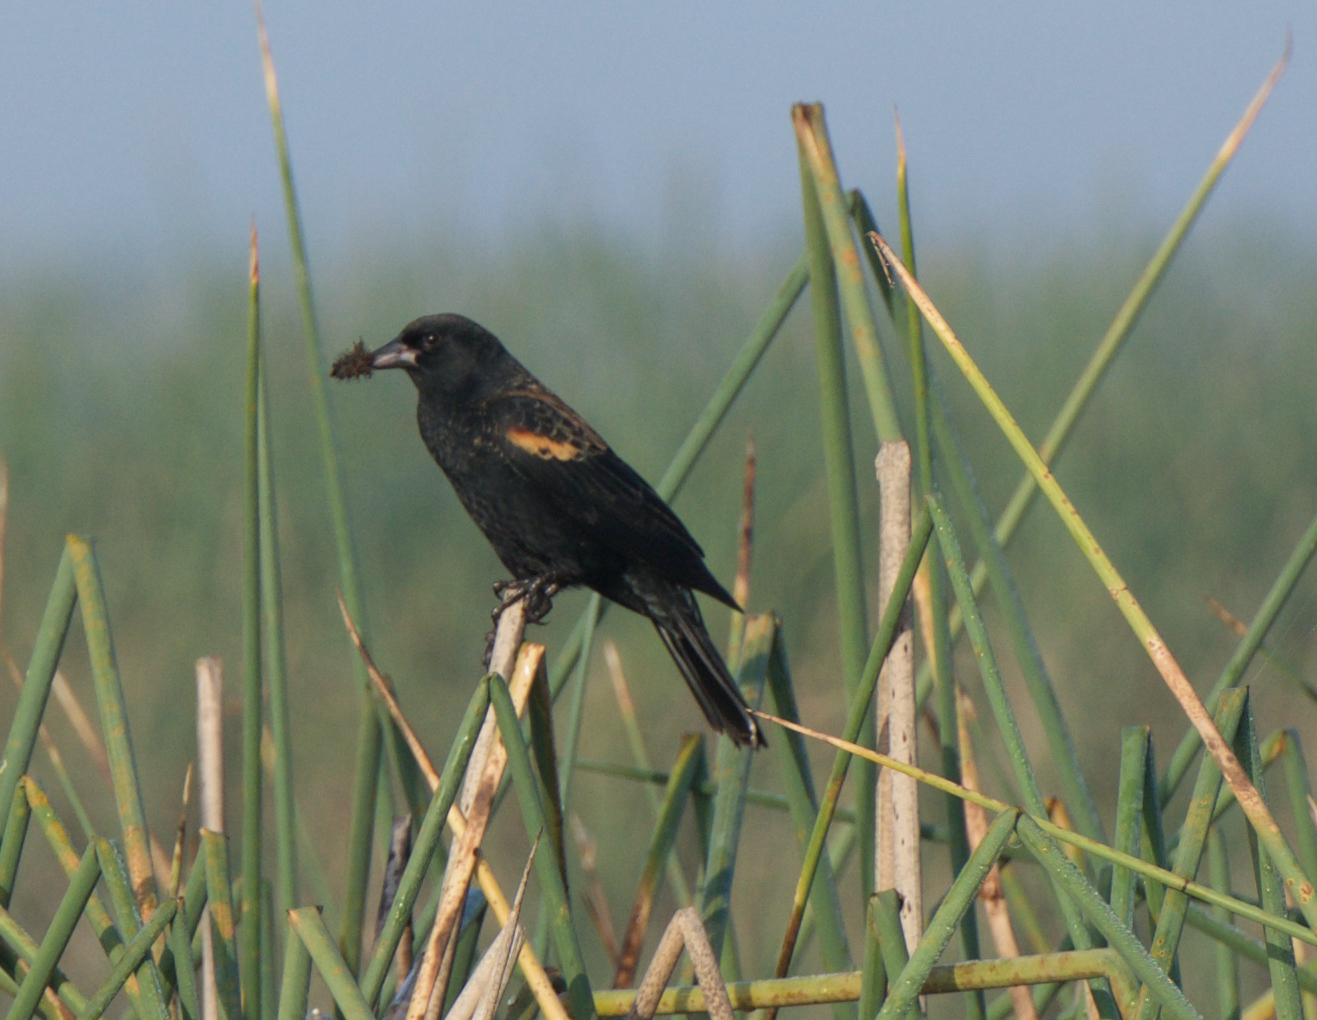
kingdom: Animalia
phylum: Chordata
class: Aves
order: Passeriformes
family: Icteridae
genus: Agelaius
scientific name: Agelaius phoeniceus
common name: Red-winged blackbird
